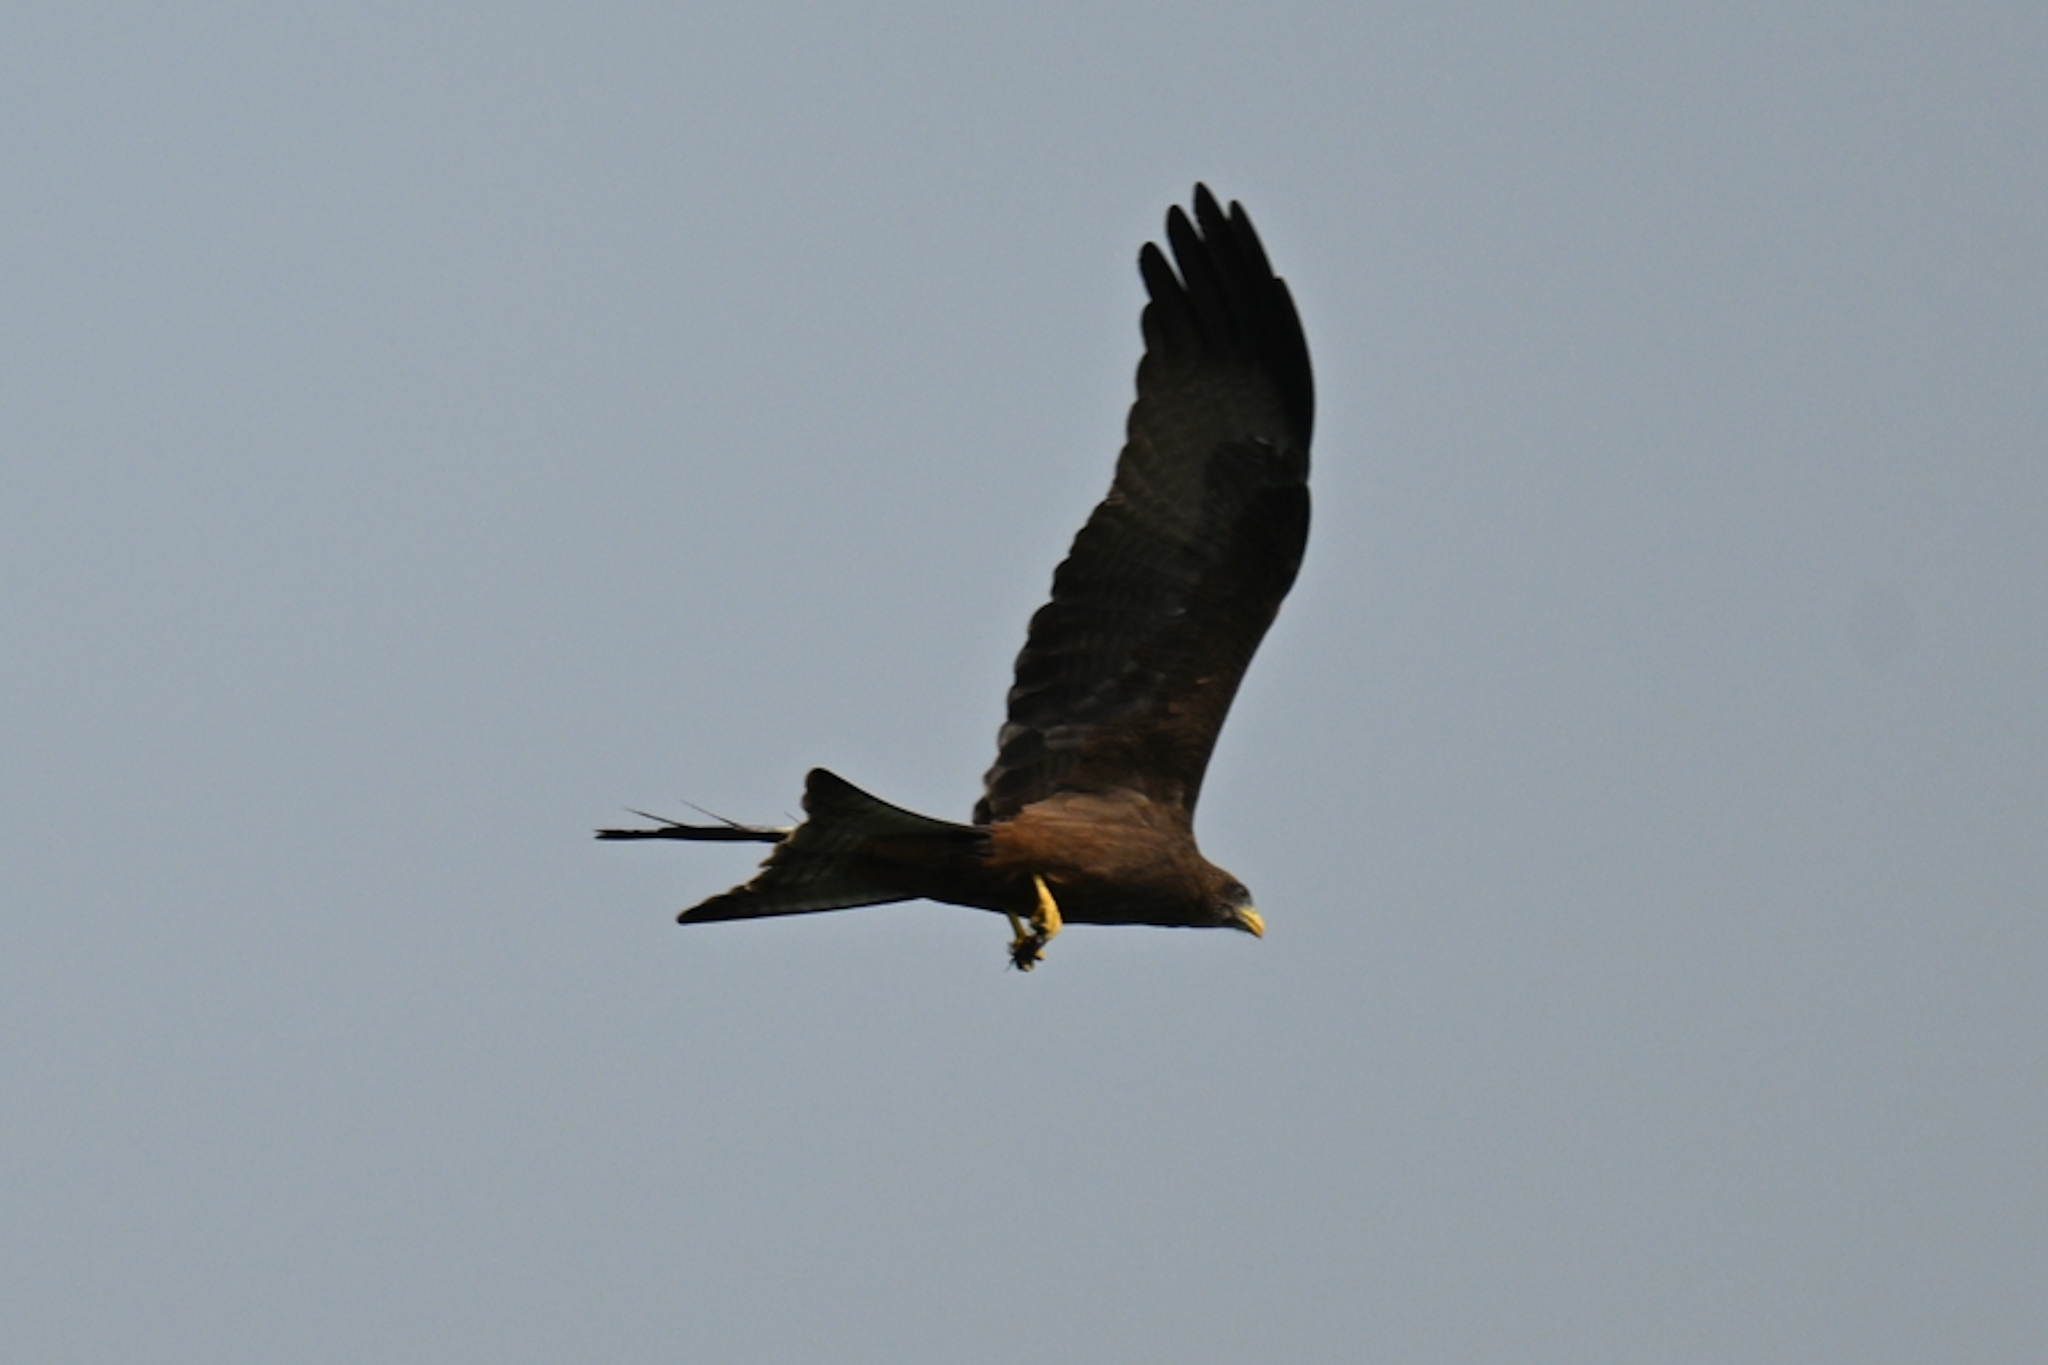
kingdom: Animalia
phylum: Chordata
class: Aves
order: Accipitriformes
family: Accipitridae
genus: Milvus
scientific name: Milvus migrans
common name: Black kite
